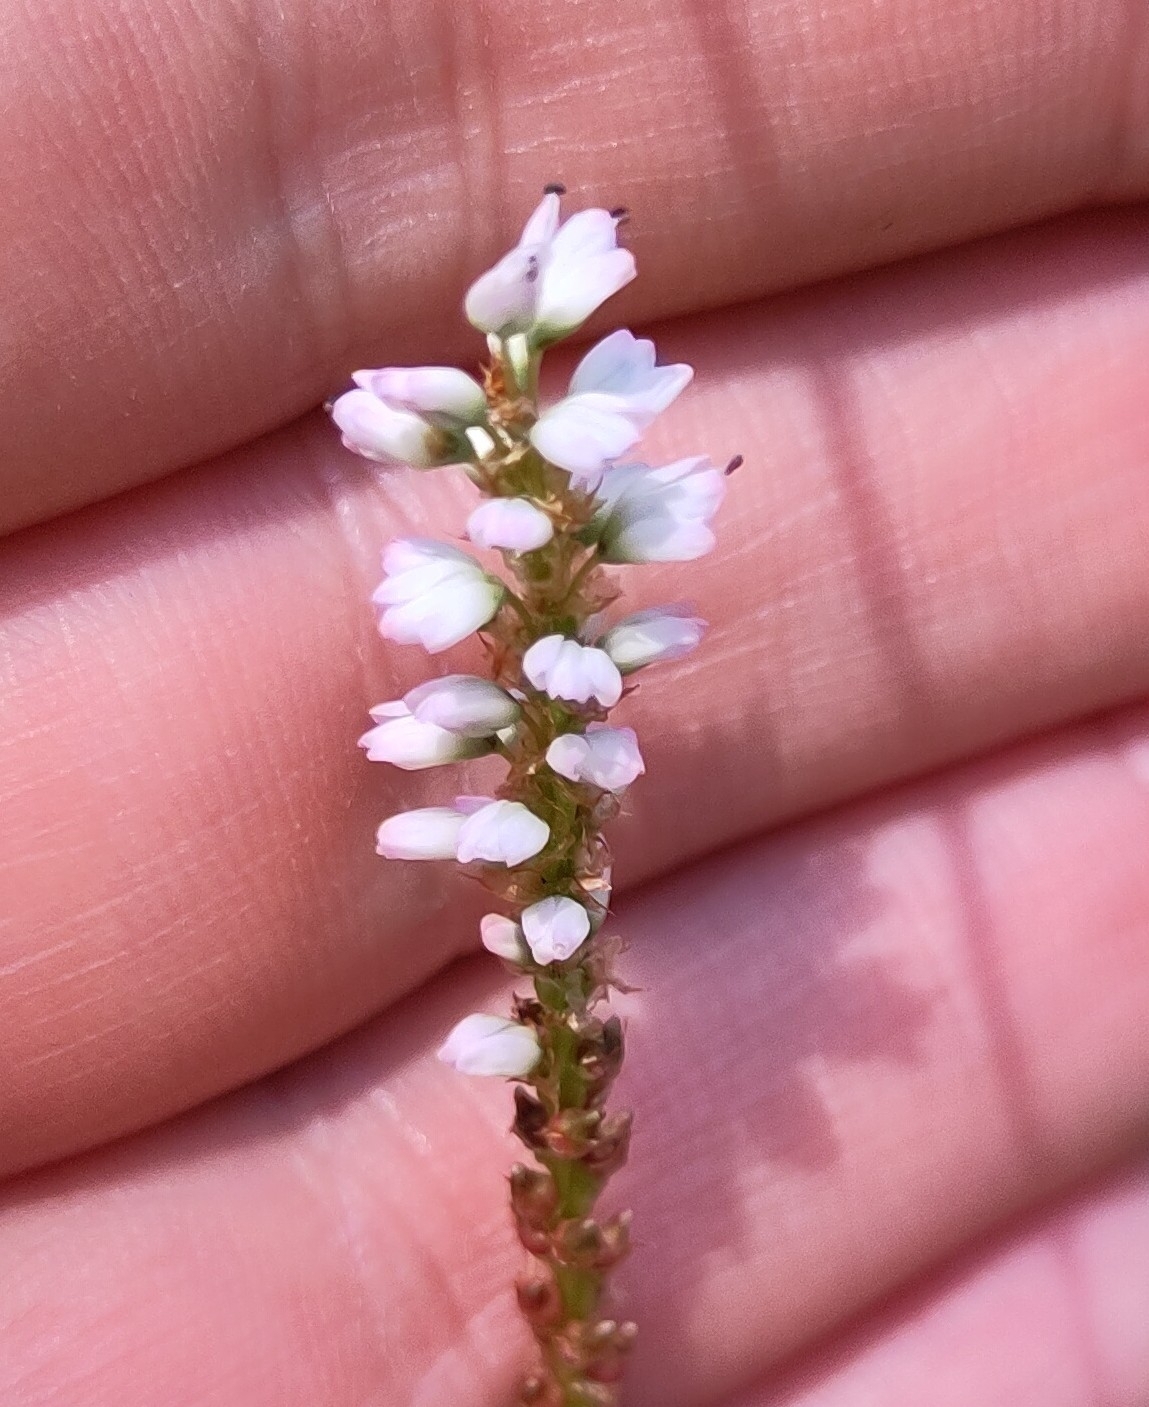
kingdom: Plantae
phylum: Tracheophyta
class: Magnoliopsida
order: Caryophyllales
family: Polygonaceae
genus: Bistorta
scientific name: Bistorta vivipara
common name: Alpine bistort
